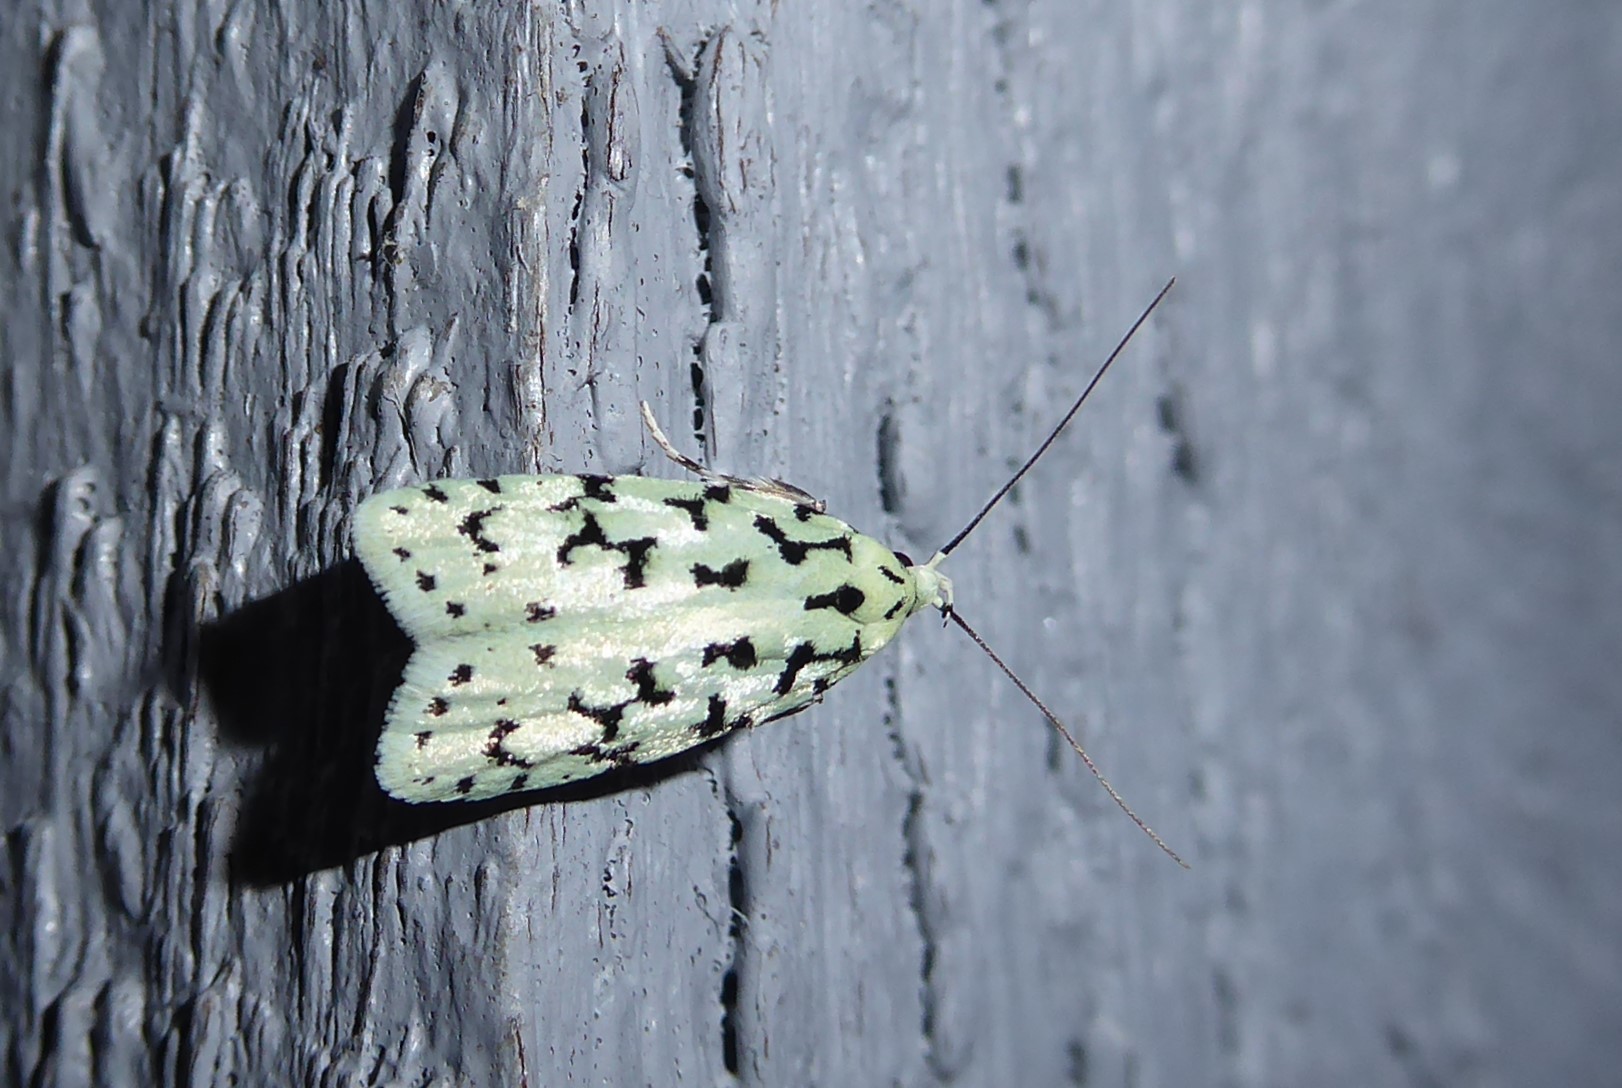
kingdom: Animalia
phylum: Arthropoda
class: Insecta
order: Lepidoptera
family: Oecophoridae
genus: Izatha
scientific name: Izatha huttoni
